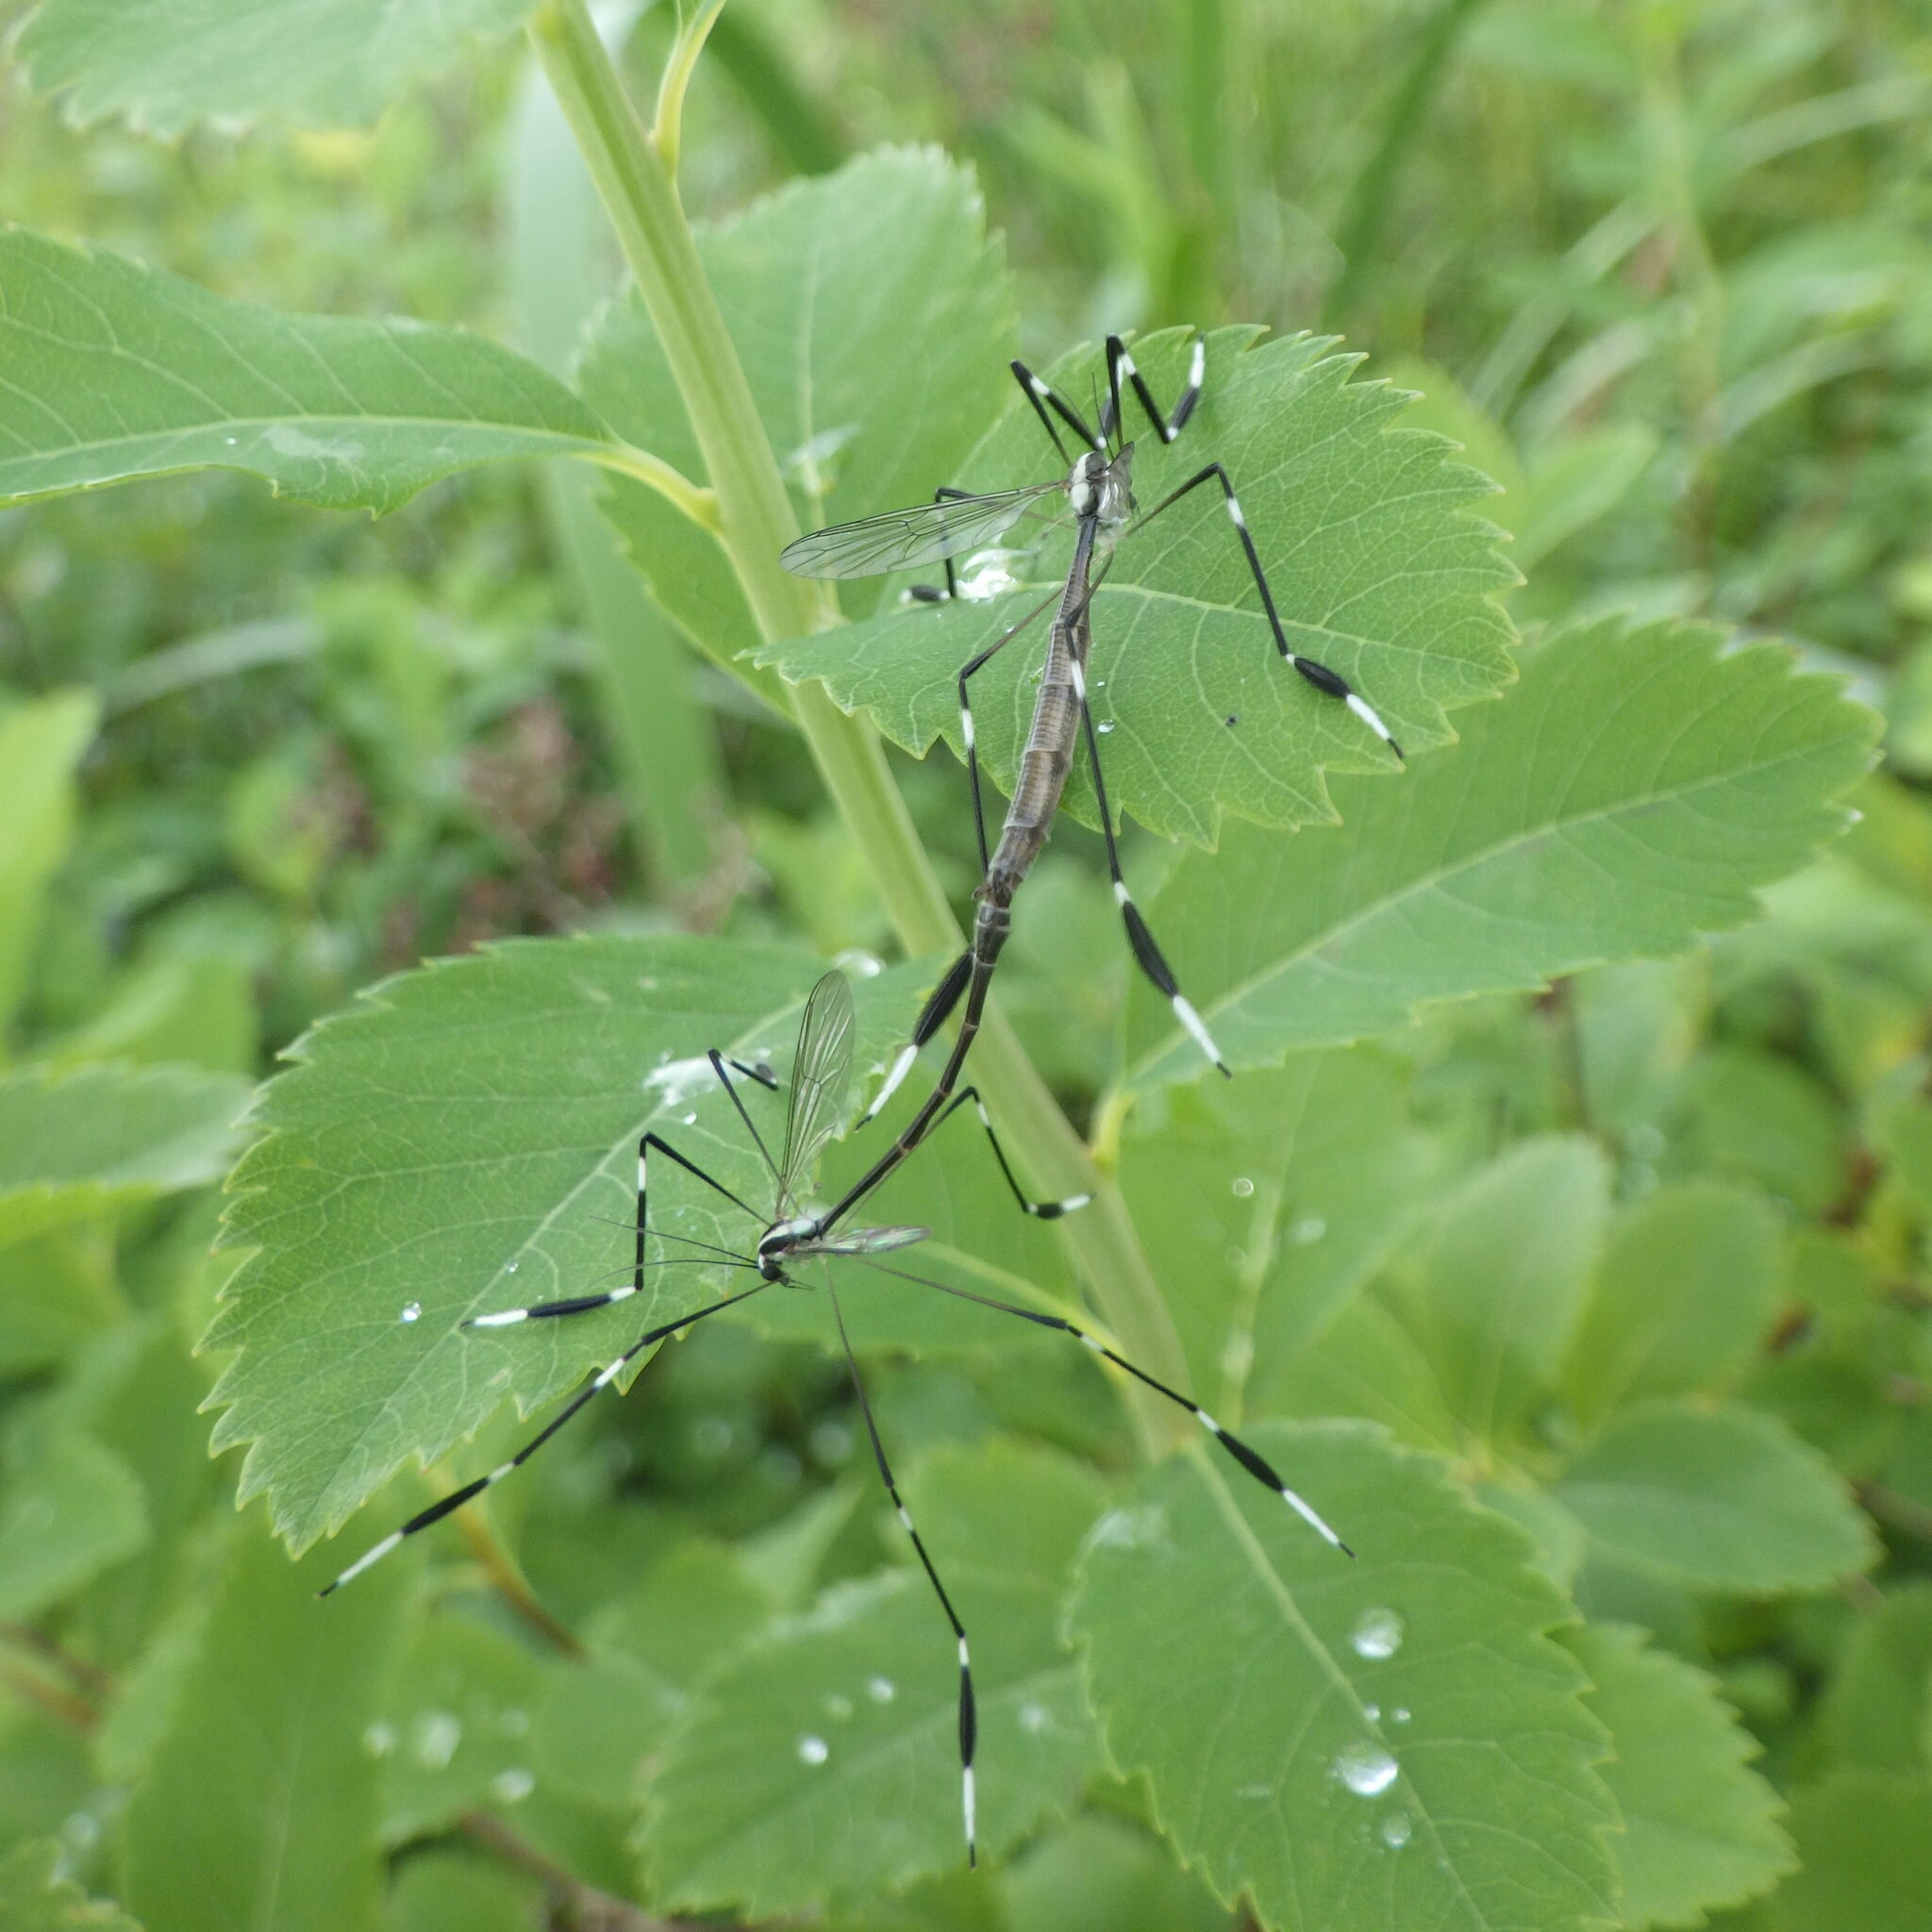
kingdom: Animalia
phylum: Arthropoda
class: Insecta
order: Diptera
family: Ptychopteridae
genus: Bittacomorpha
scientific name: Bittacomorpha clavipes
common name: Eastern phantom crane fly
